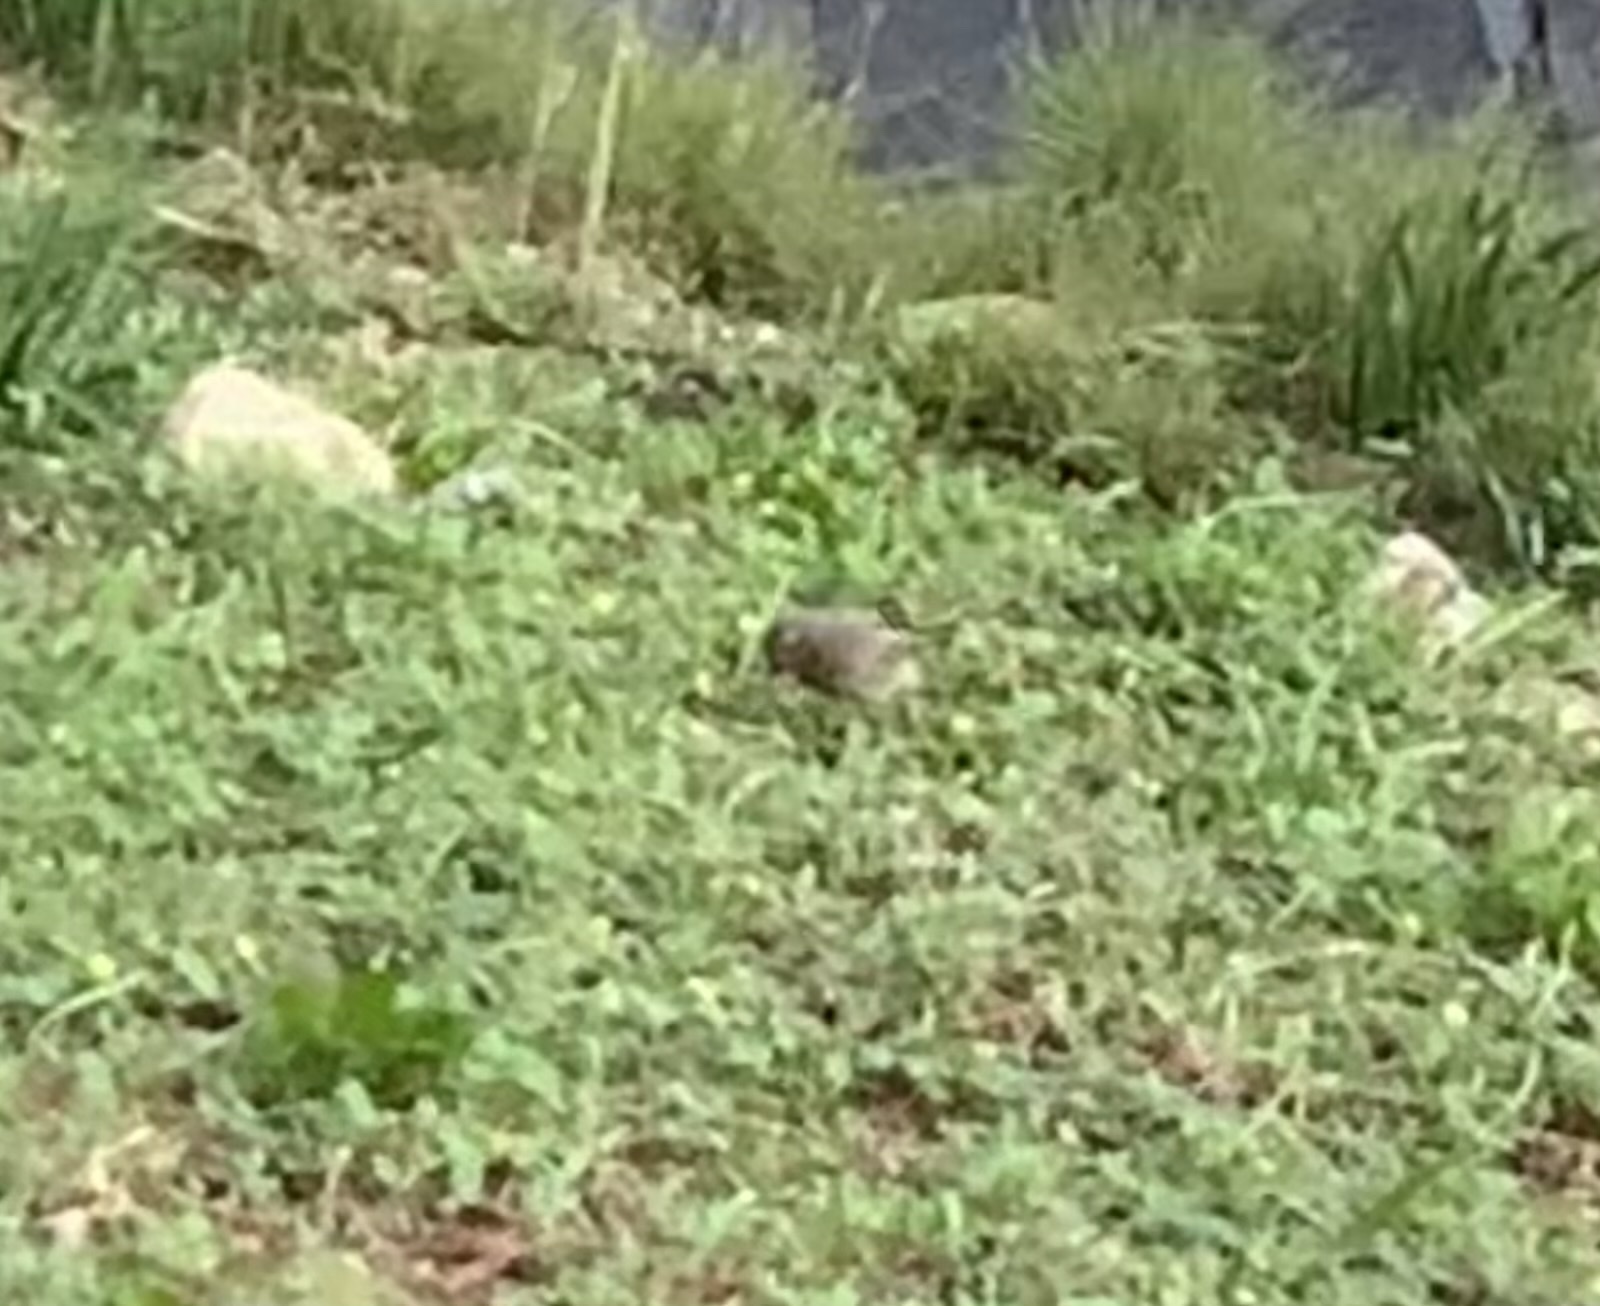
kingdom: Animalia
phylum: Chordata
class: Aves
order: Passeriformes
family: Muscicapidae
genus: Phoenicurus
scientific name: Phoenicurus ochruros
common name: Black redstart
